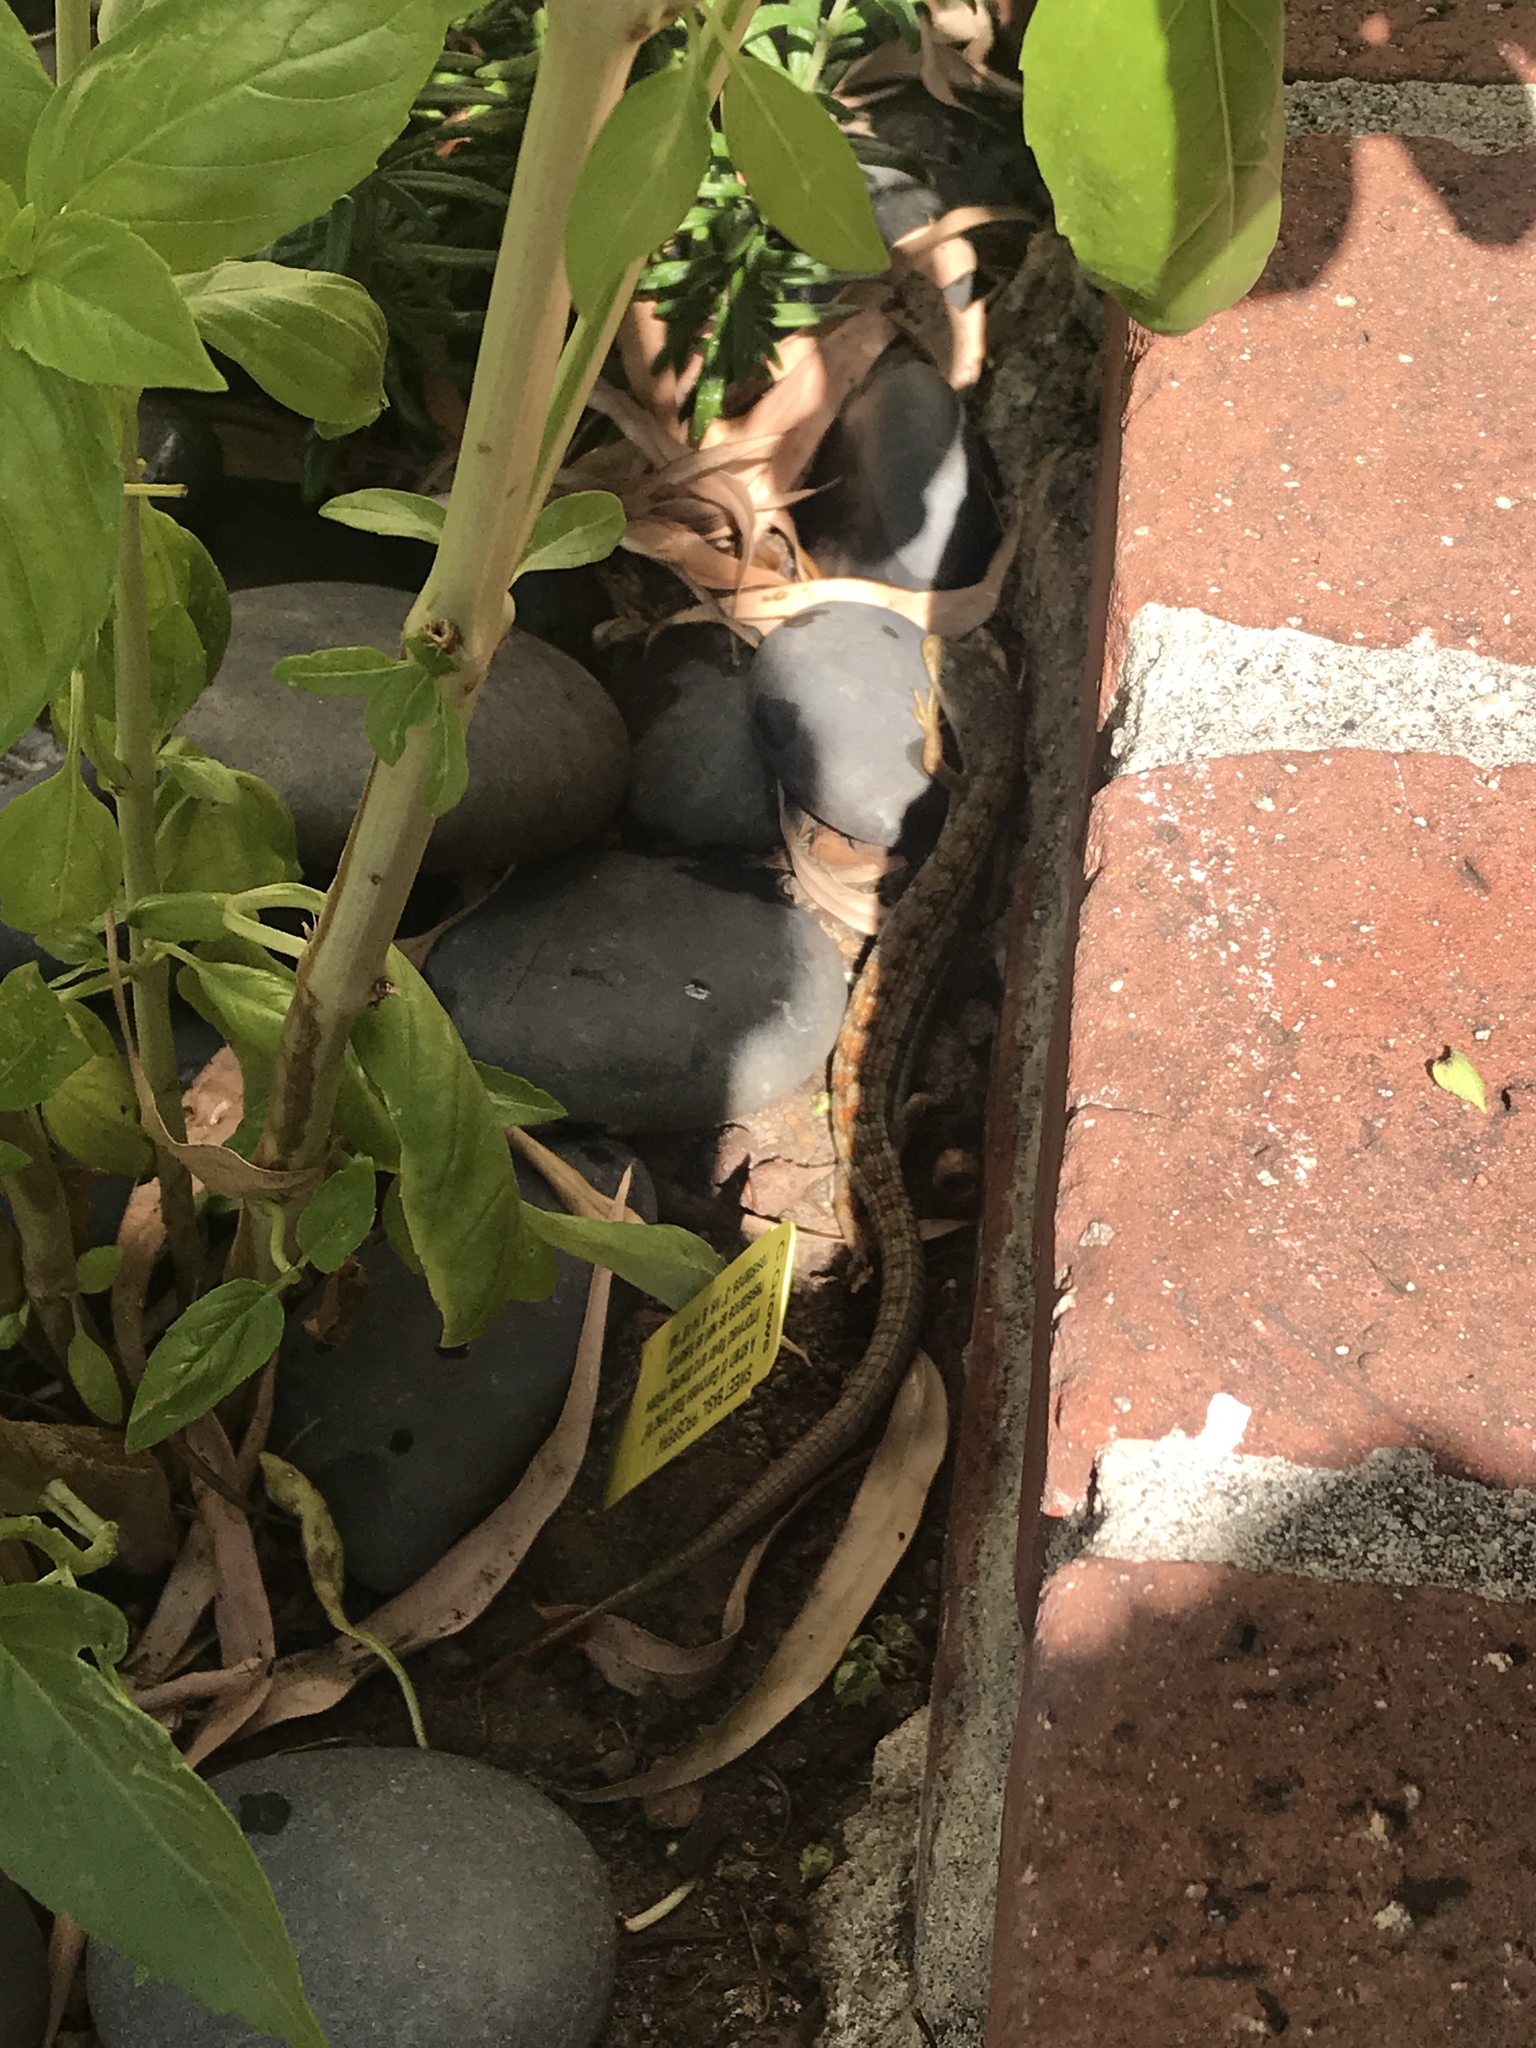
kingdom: Animalia
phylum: Chordata
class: Squamata
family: Anguidae
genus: Elgaria
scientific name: Elgaria multicarinata
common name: Southern alligator lizard
